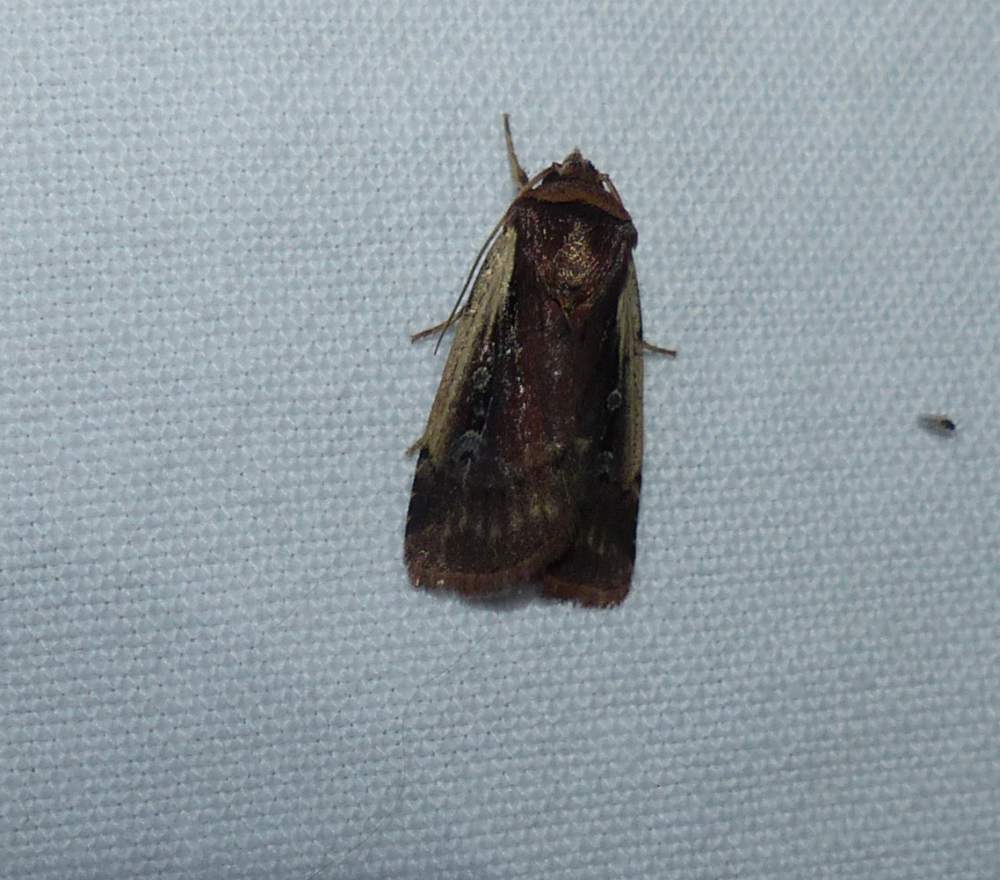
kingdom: Animalia
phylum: Arthropoda
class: Insecta
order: Lepidoptera
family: Noctuidae
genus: Ochropleura
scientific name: Ochropleura implecta
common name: Flame-shouldered dart
